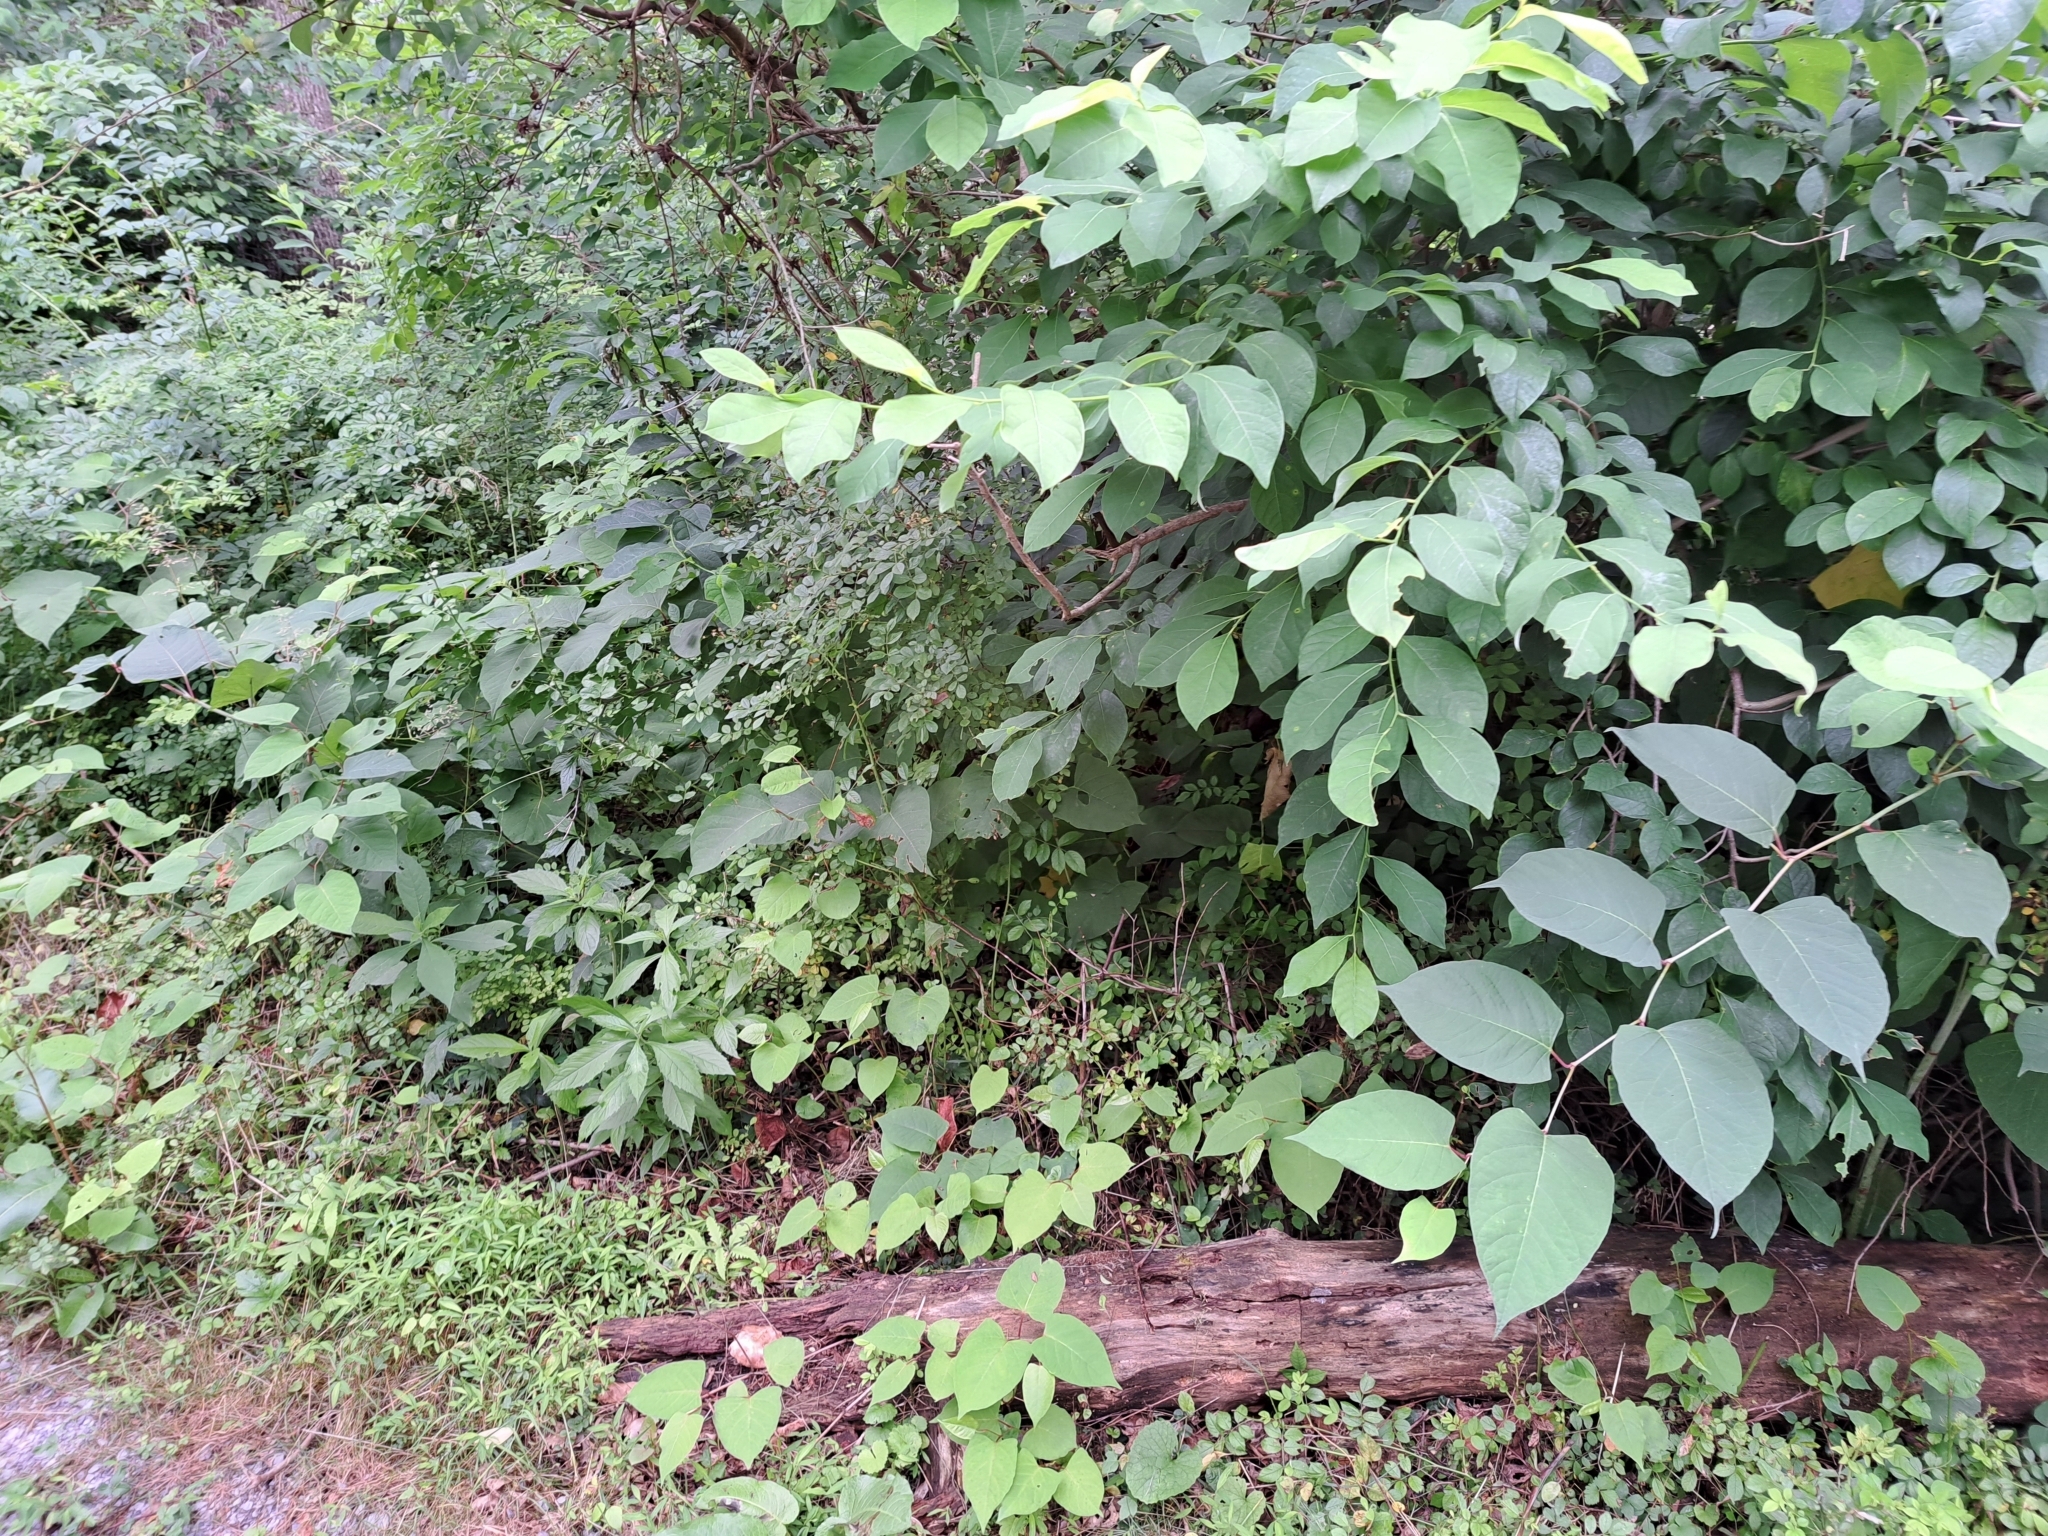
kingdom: Plantae
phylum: Tracheophyta
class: Magnoliopsida
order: Caryophyllales
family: Polygonaceae
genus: Reynoutria
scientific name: Reynoutria japonica
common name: Japanese knotweed
